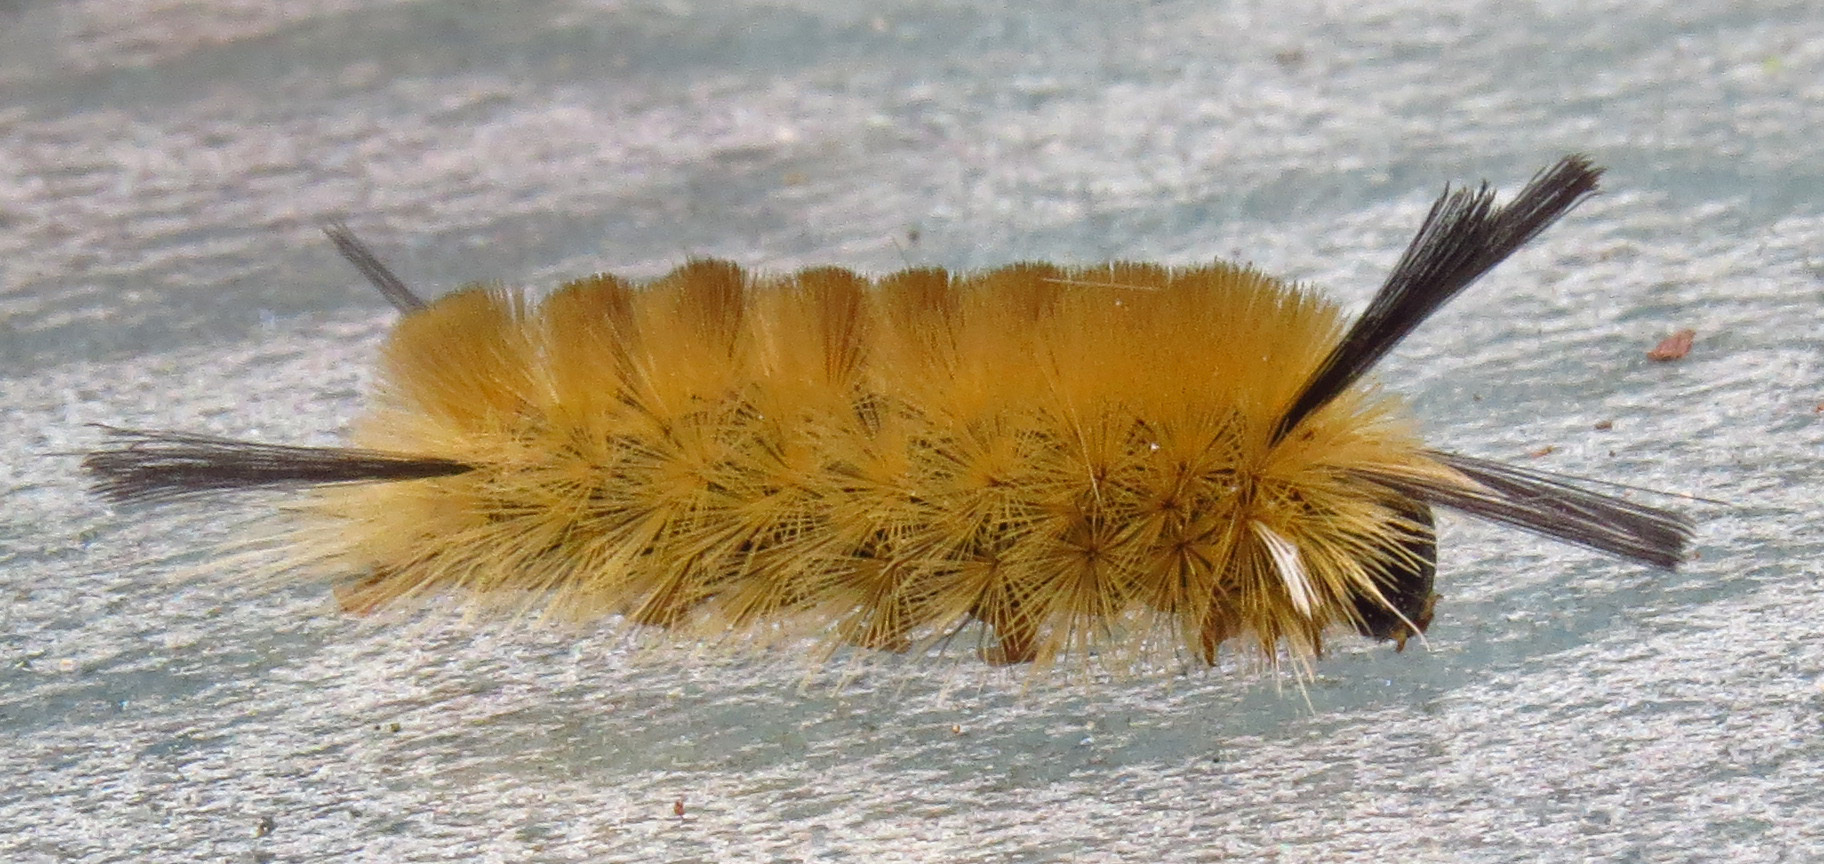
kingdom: Animalia
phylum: Arthropoda
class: Insecta
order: Lepidoptera
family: Erebidae
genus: Halysidota
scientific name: Halysidota tessellaris
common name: Banded tussock moth
